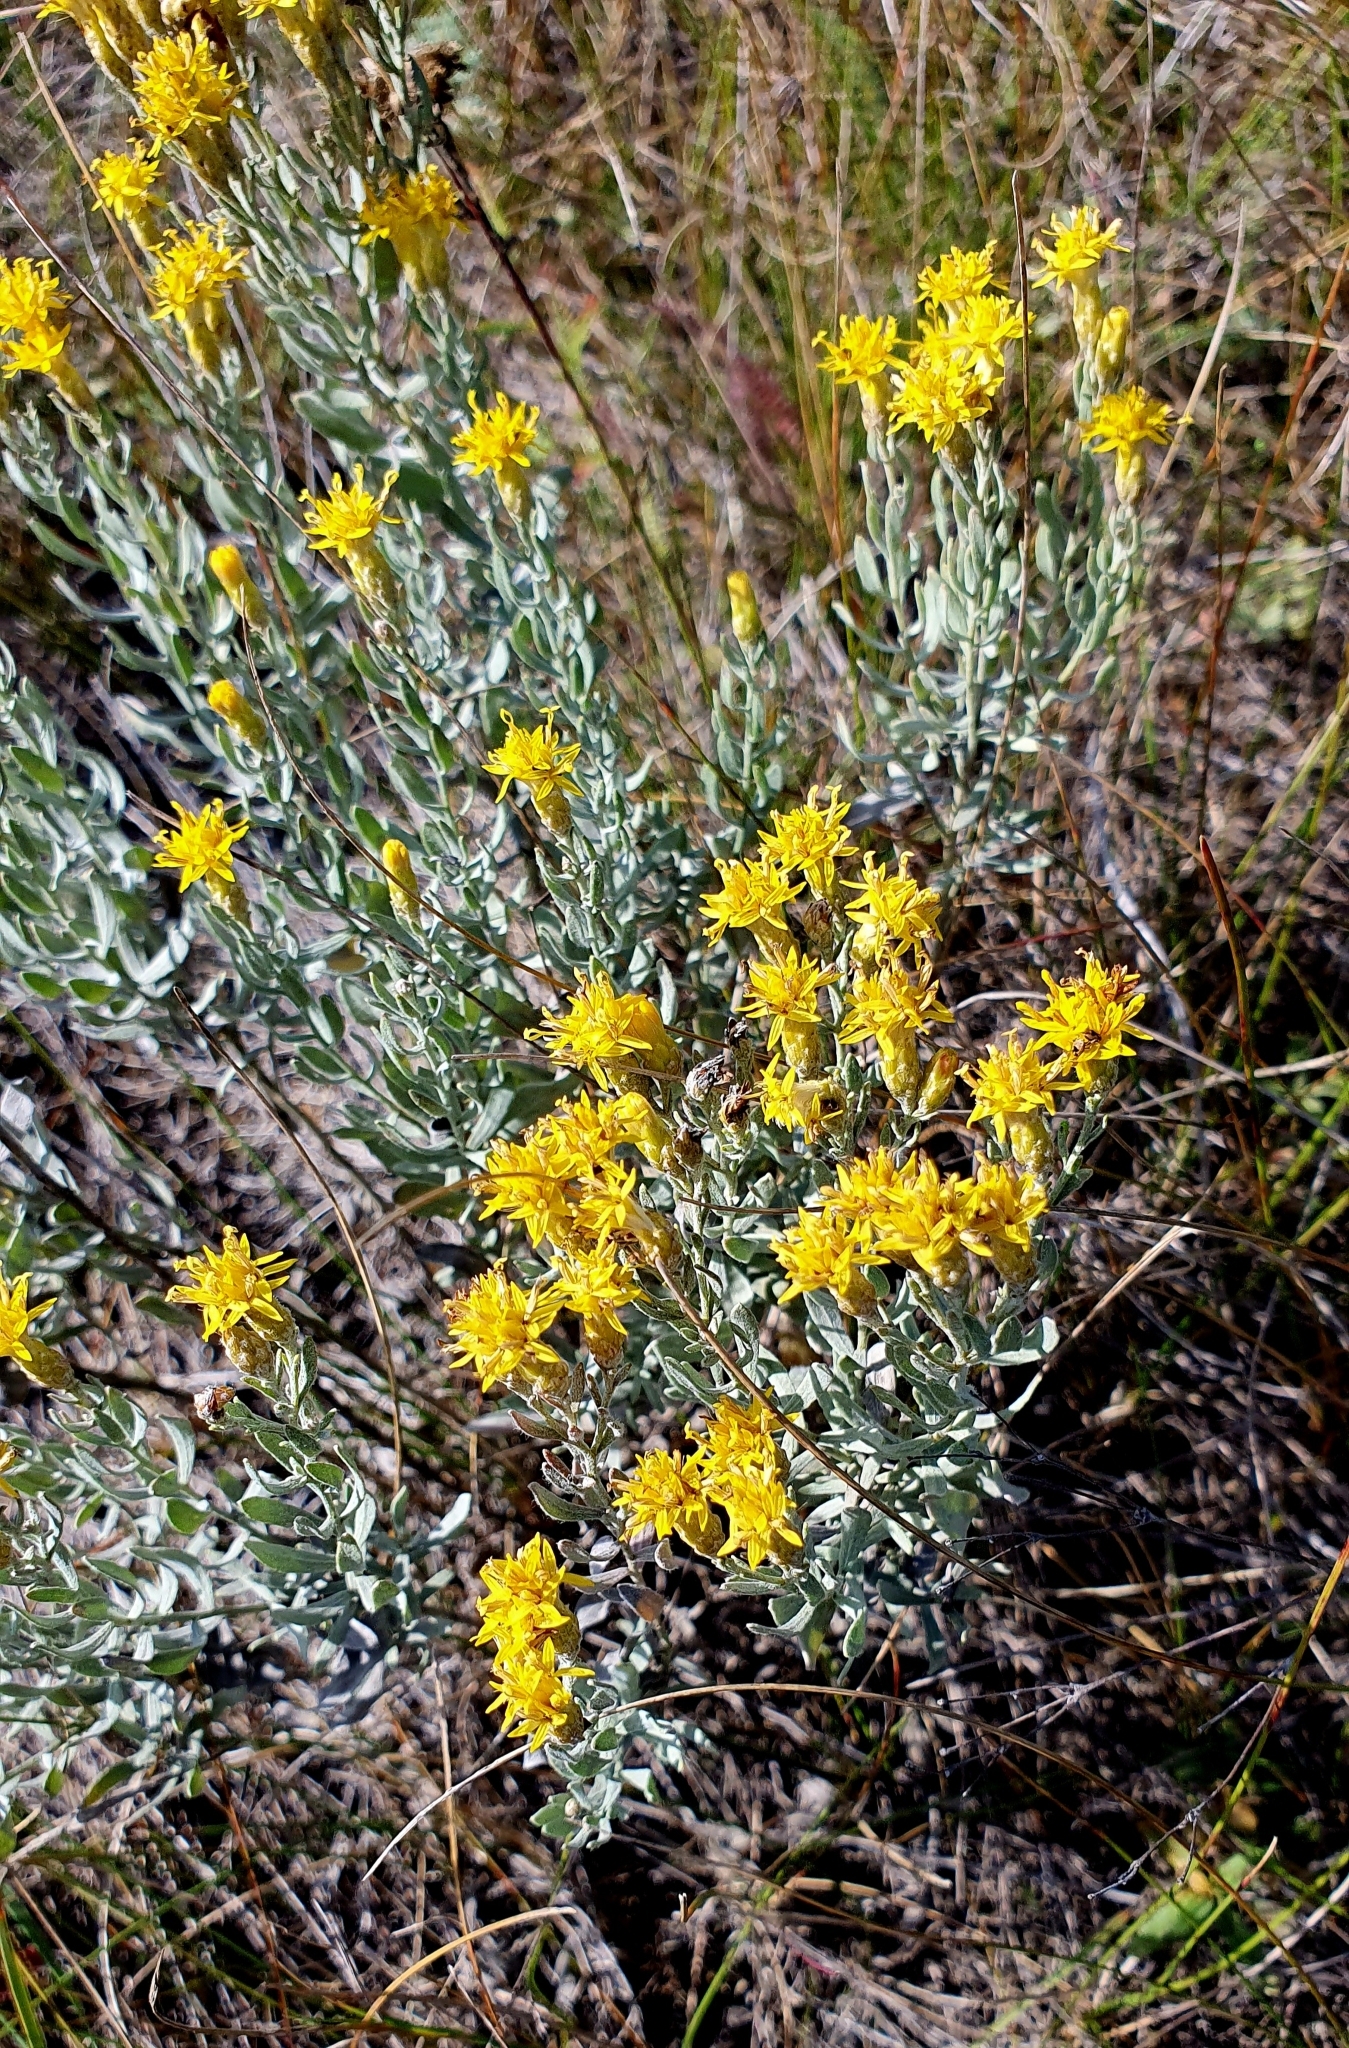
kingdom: Plantae
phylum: Tracheophyta
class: Magnoliopsida
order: Asterales
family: Asteraceae
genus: Galatella
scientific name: Galatella villosa
